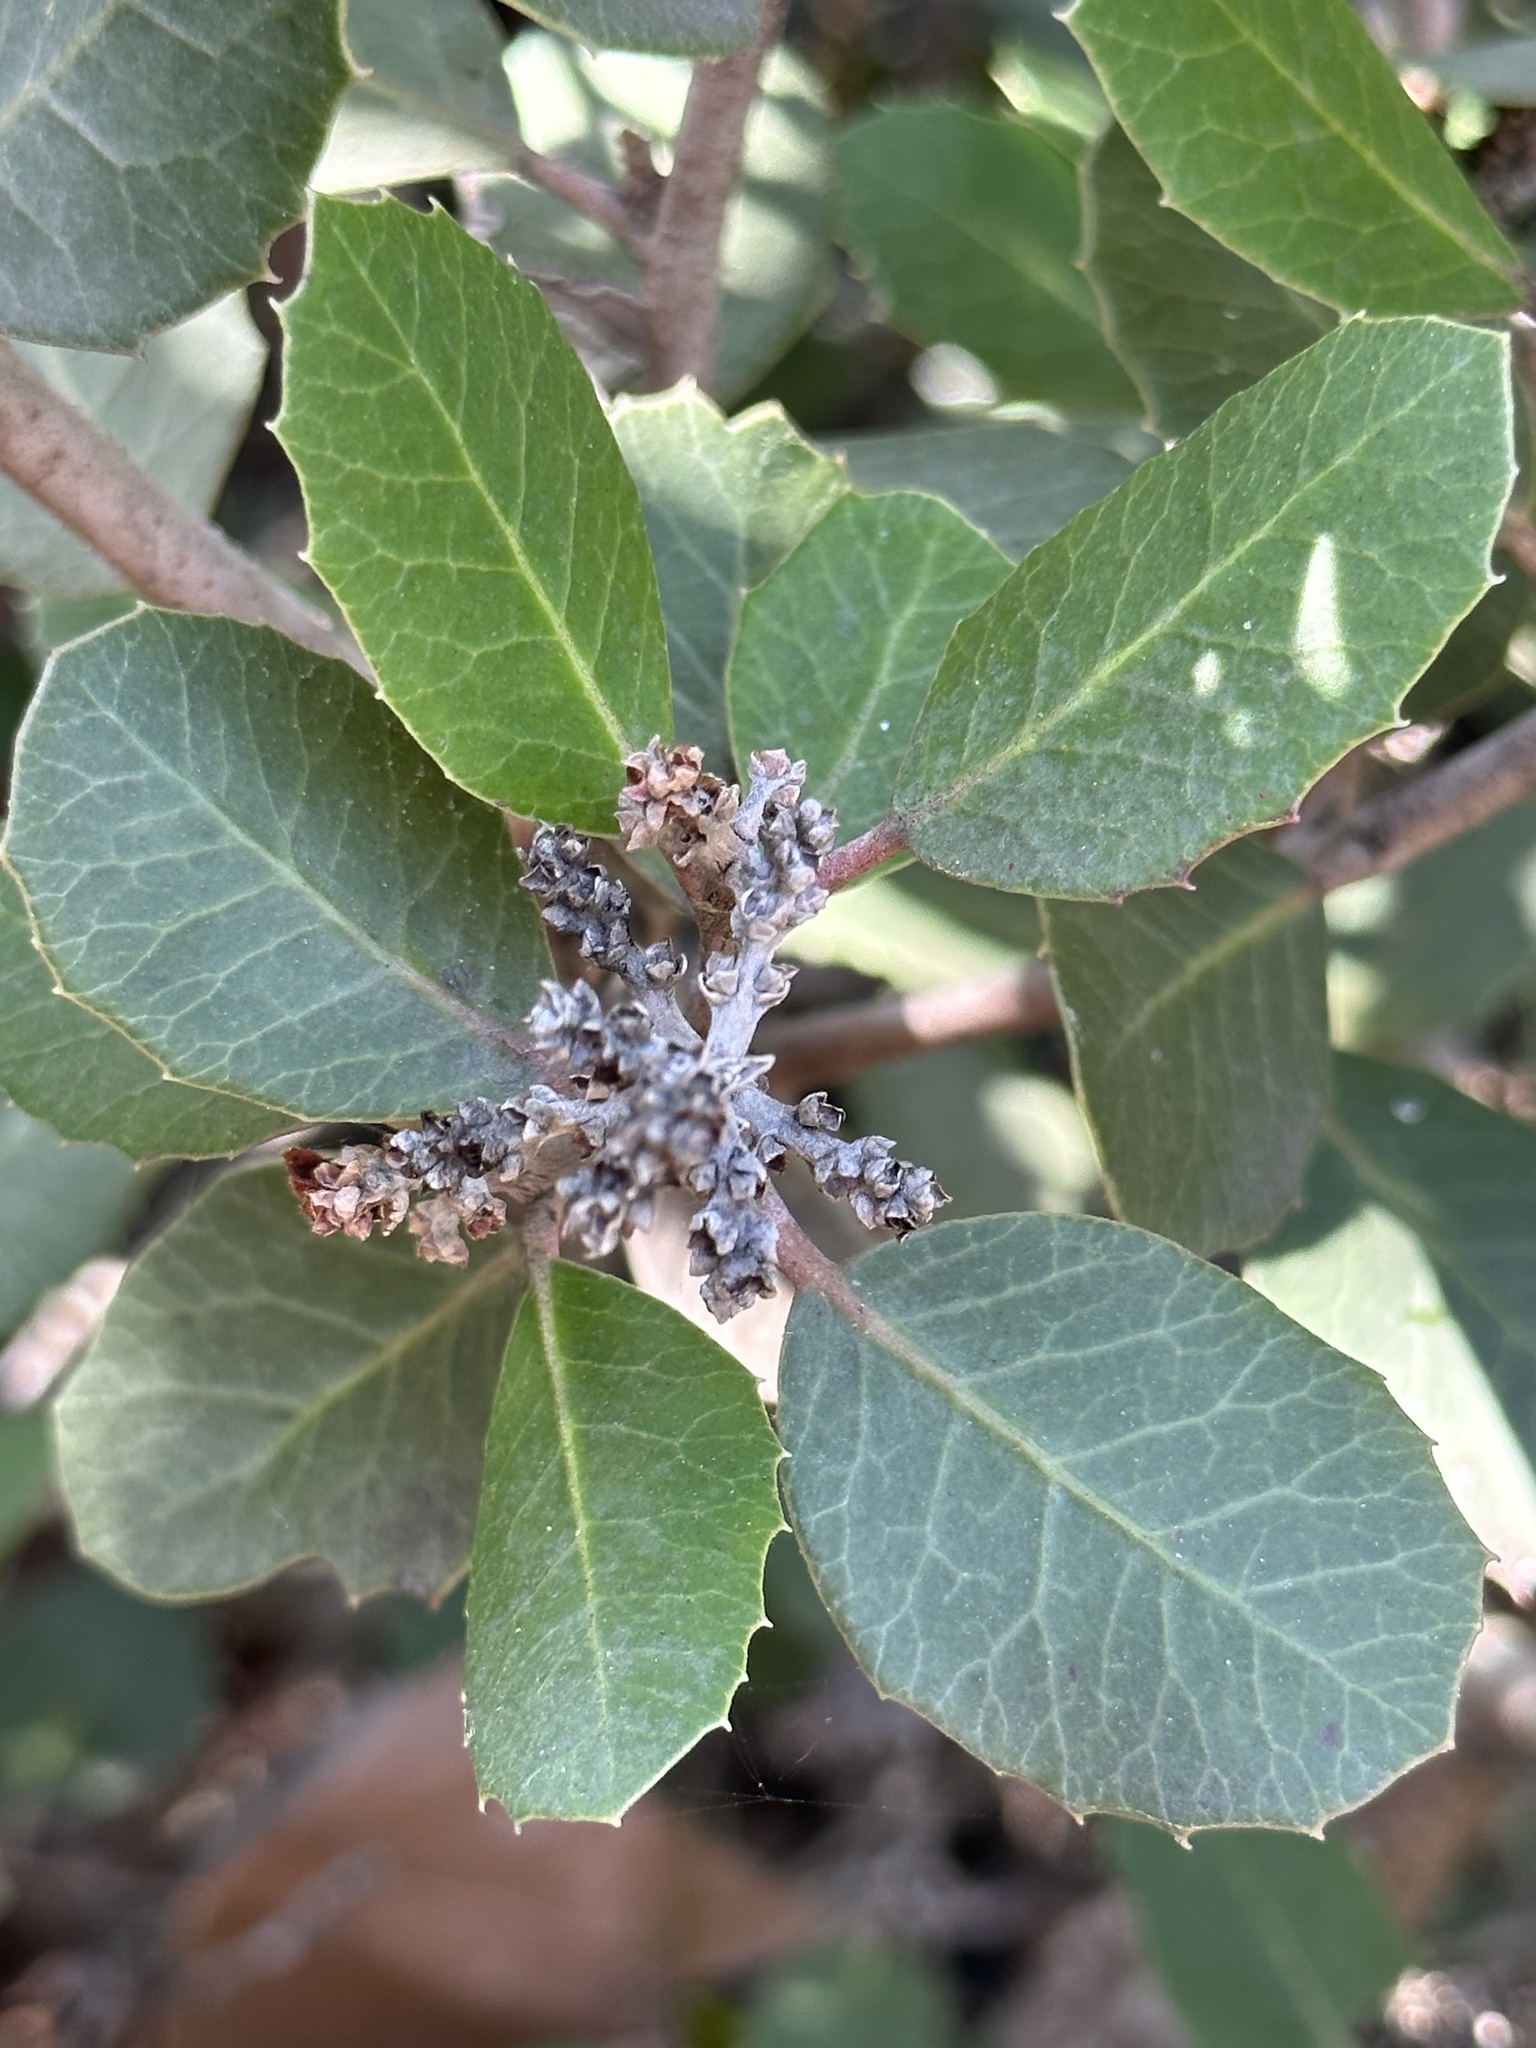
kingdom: Plantae
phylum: Tracheophyta
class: Magnoliopsida
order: Sapindales
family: Anacardiaceae
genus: Rhus
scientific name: Rhus integrifolia
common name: Lemonade sumac
